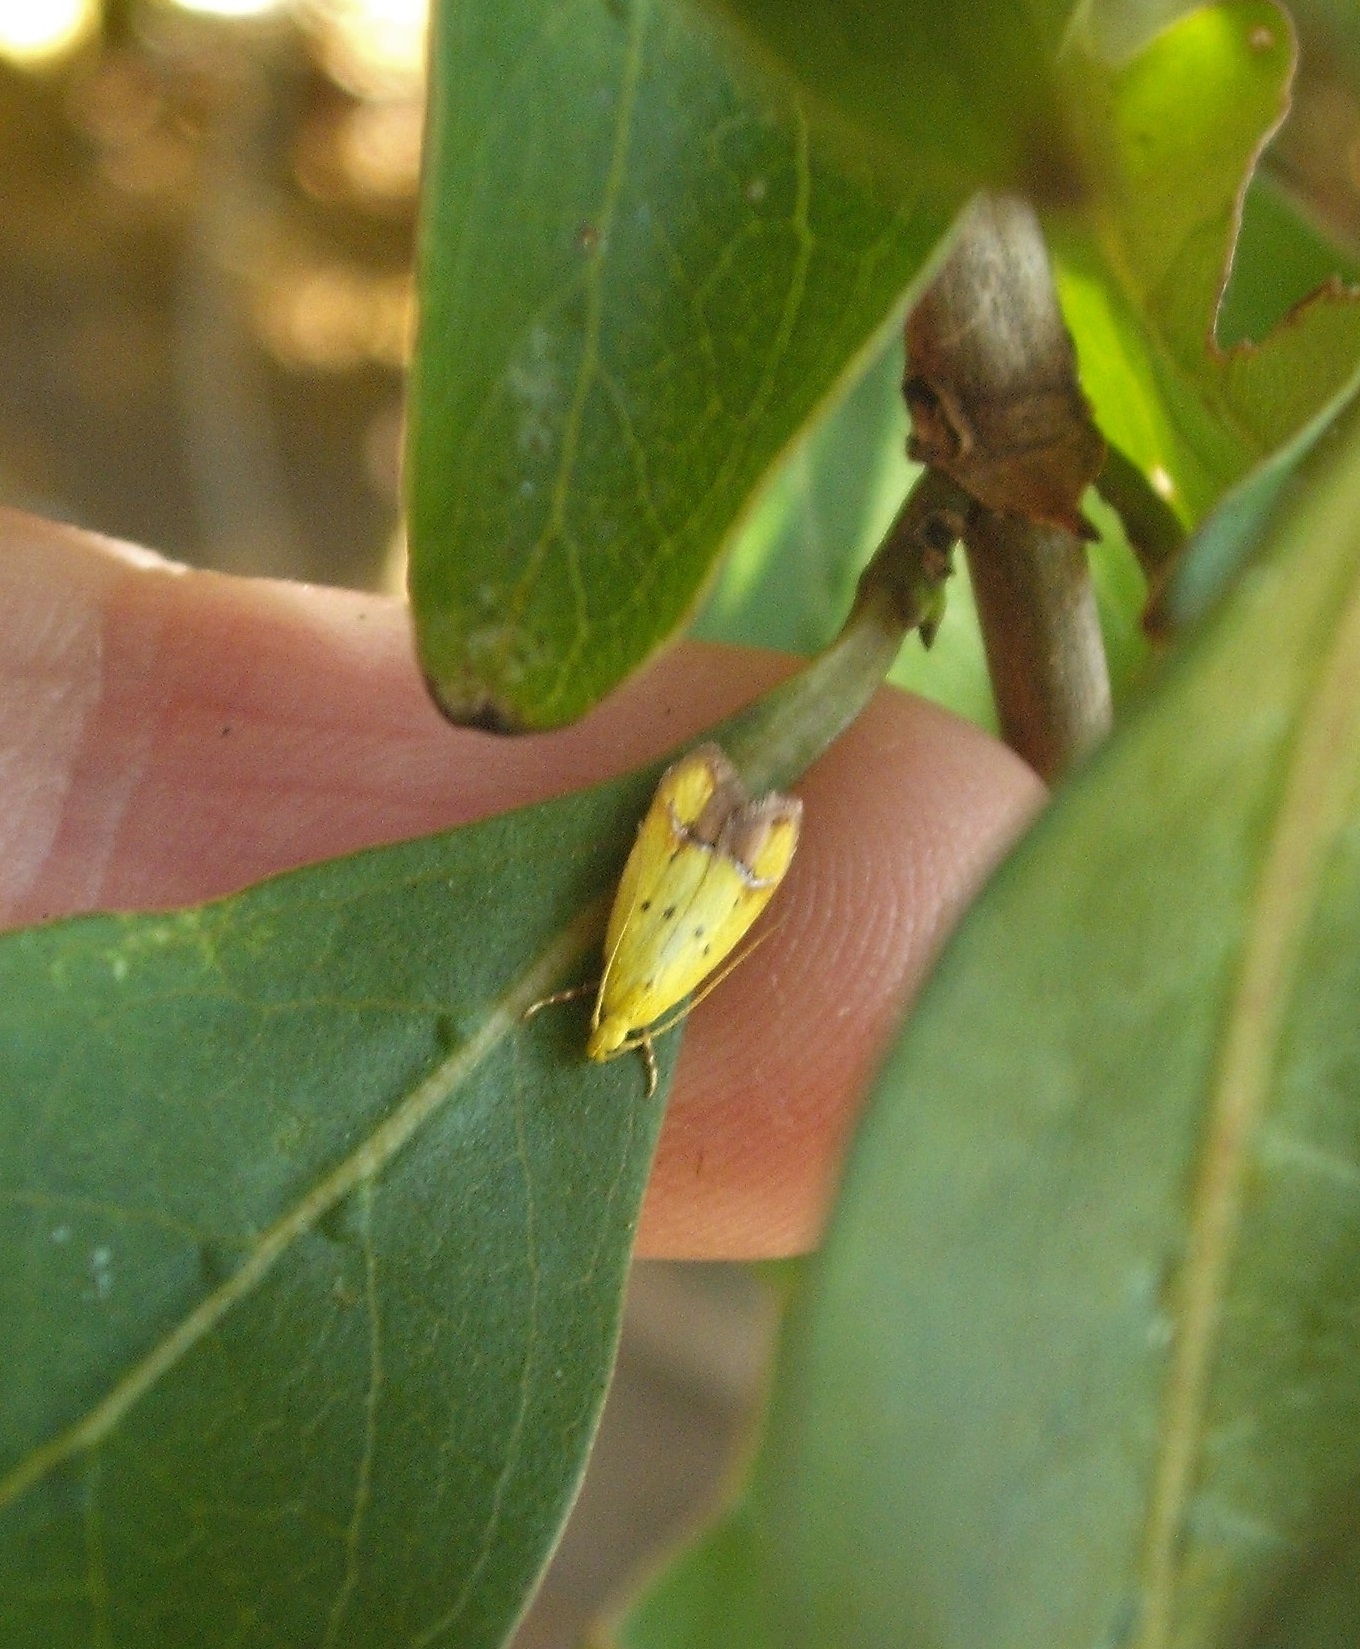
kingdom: Animalia
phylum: Arthropoda
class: Insecta
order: Lepidoptera
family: Oecophoridae
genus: Gymnobathra
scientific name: Gymnobathra flavidella
